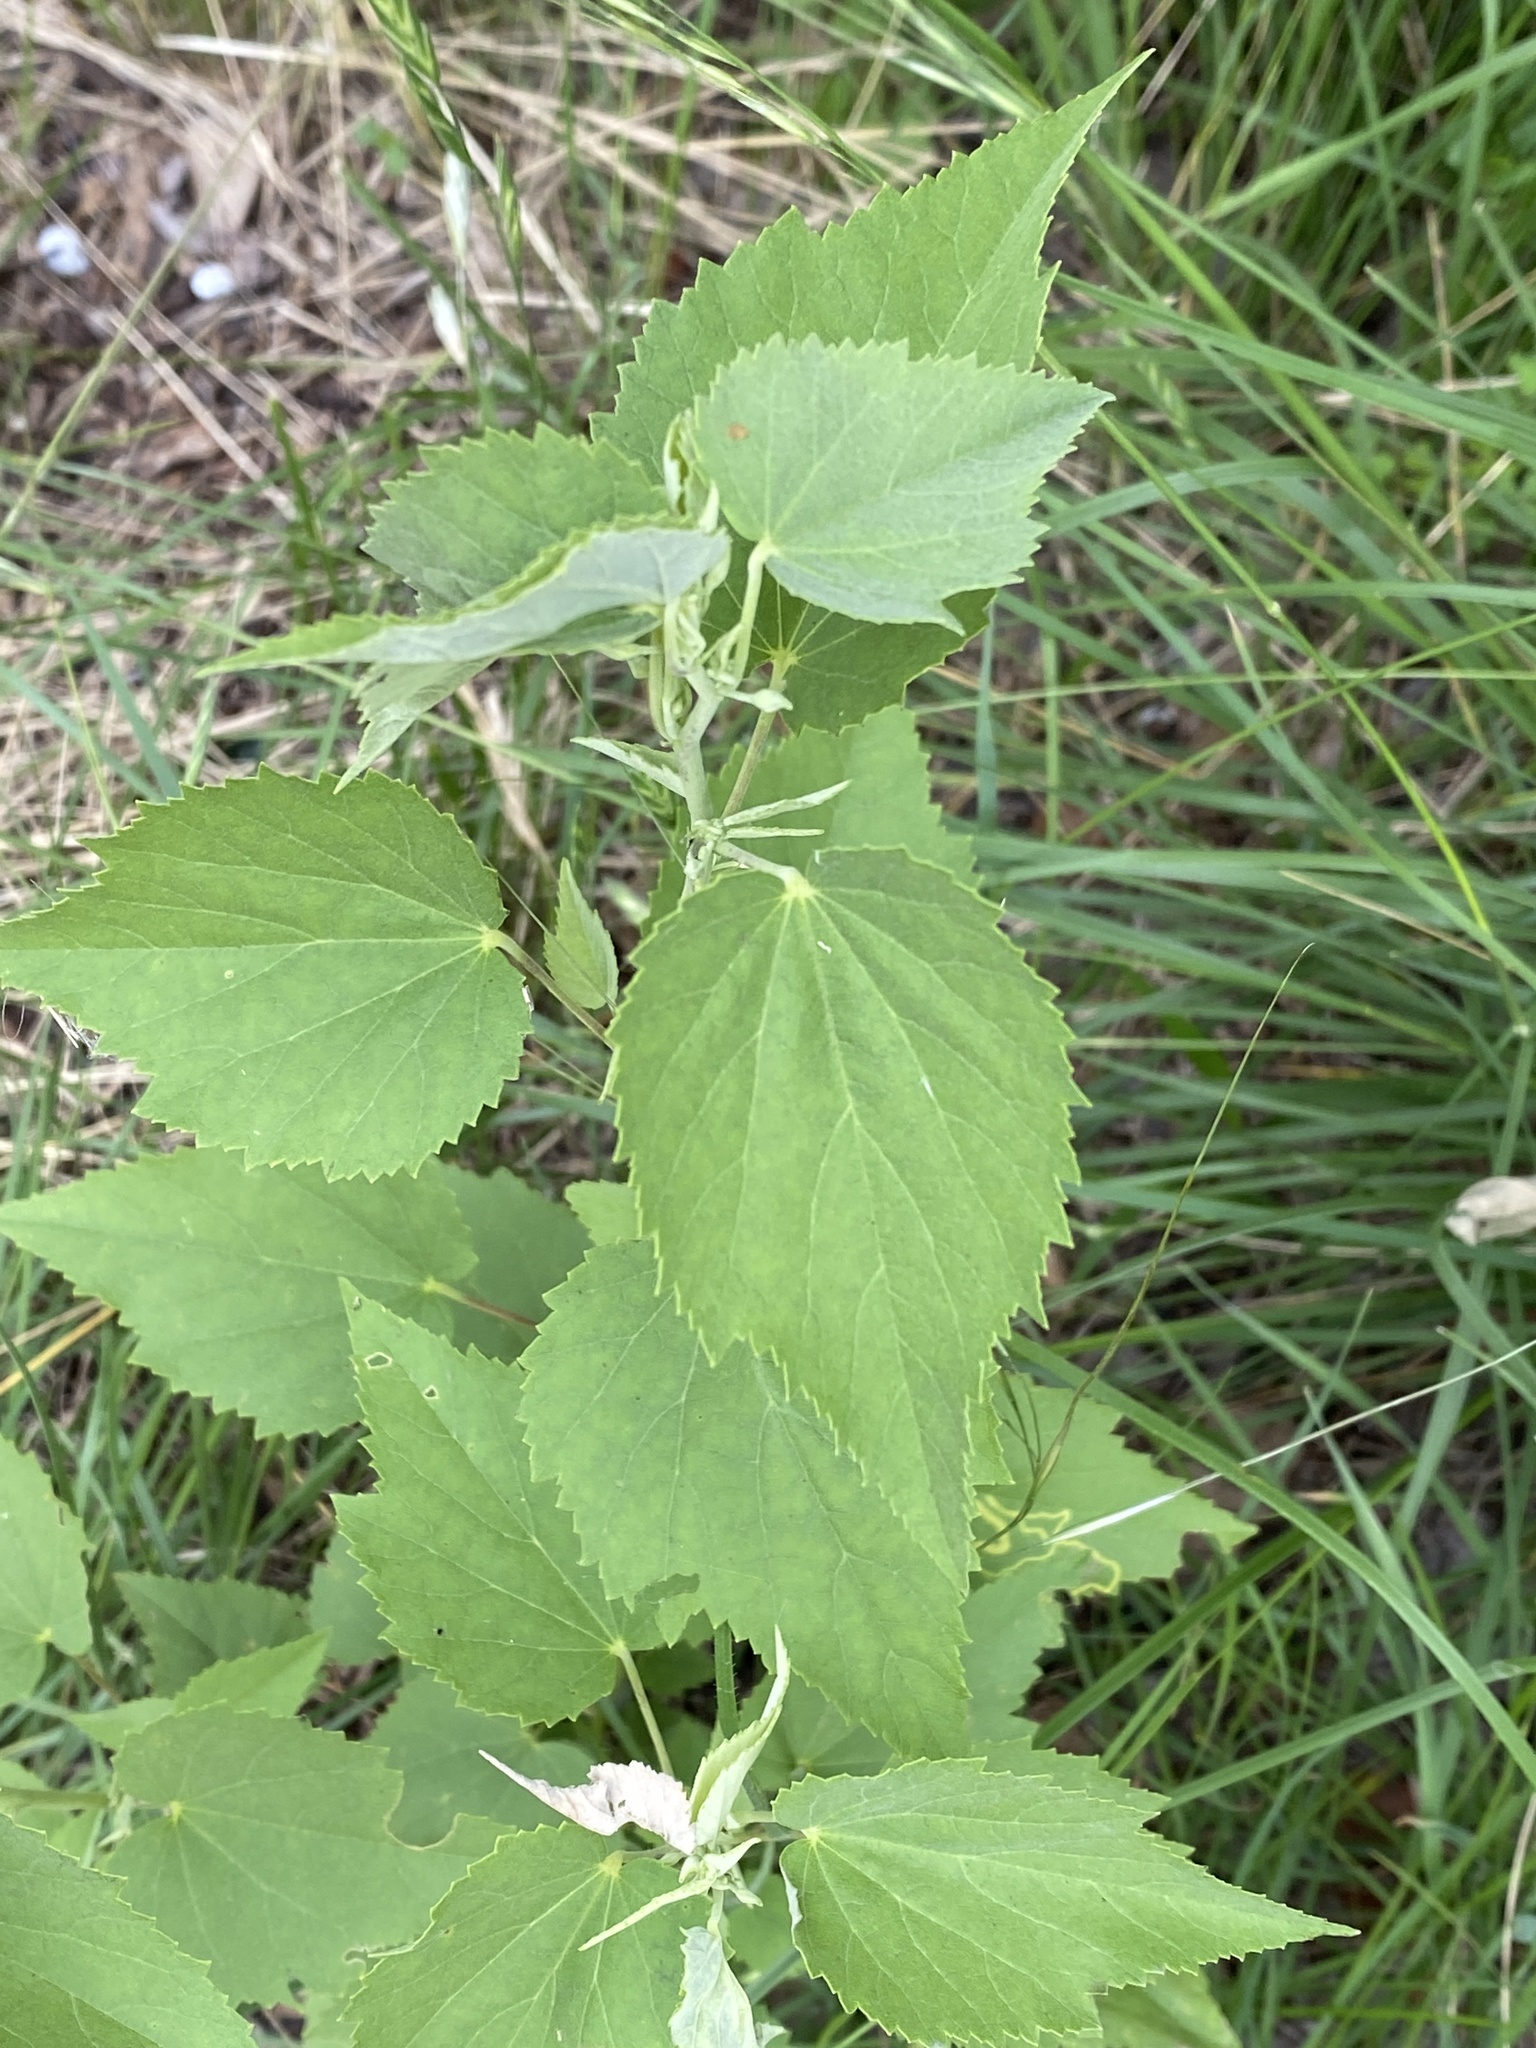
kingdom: Plantae
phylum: Tracheophyta
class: Magnoliopsida
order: Malvales
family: Malvaceae
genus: Allowissadula
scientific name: Allowissadula holosericea
